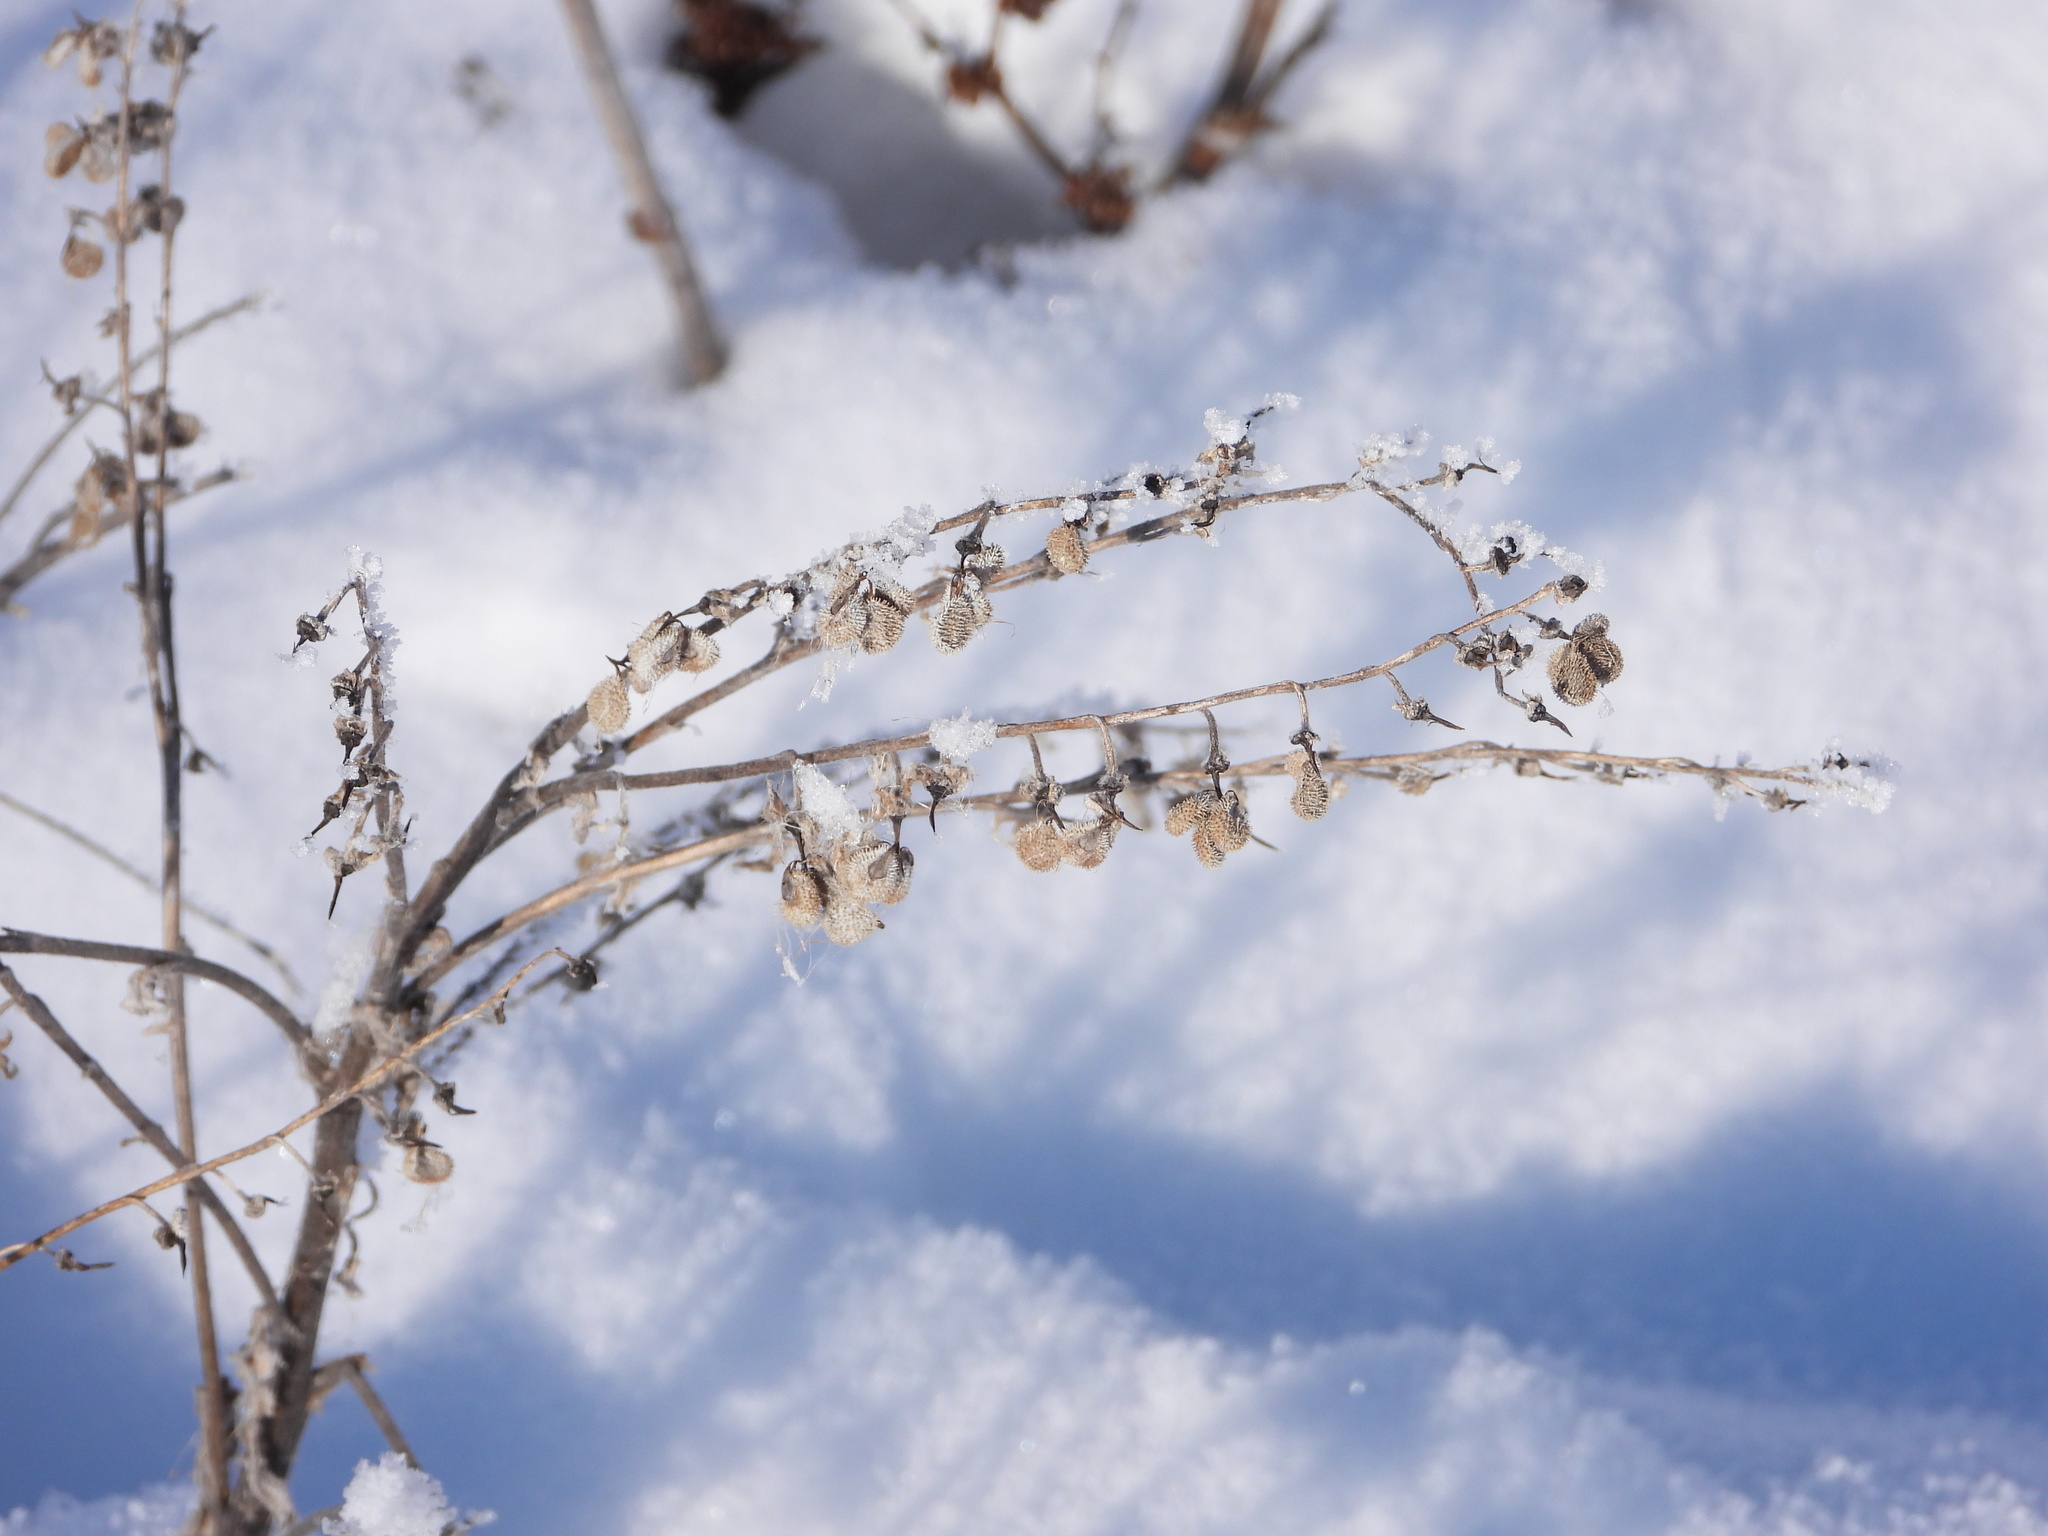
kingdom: Plantae
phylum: Tracheophyta
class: Magnoliopsida
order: Boraginales
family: Boraginaceae
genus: Cynoglossum
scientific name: Cynoglossum officinale
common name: Hound's-tongue
